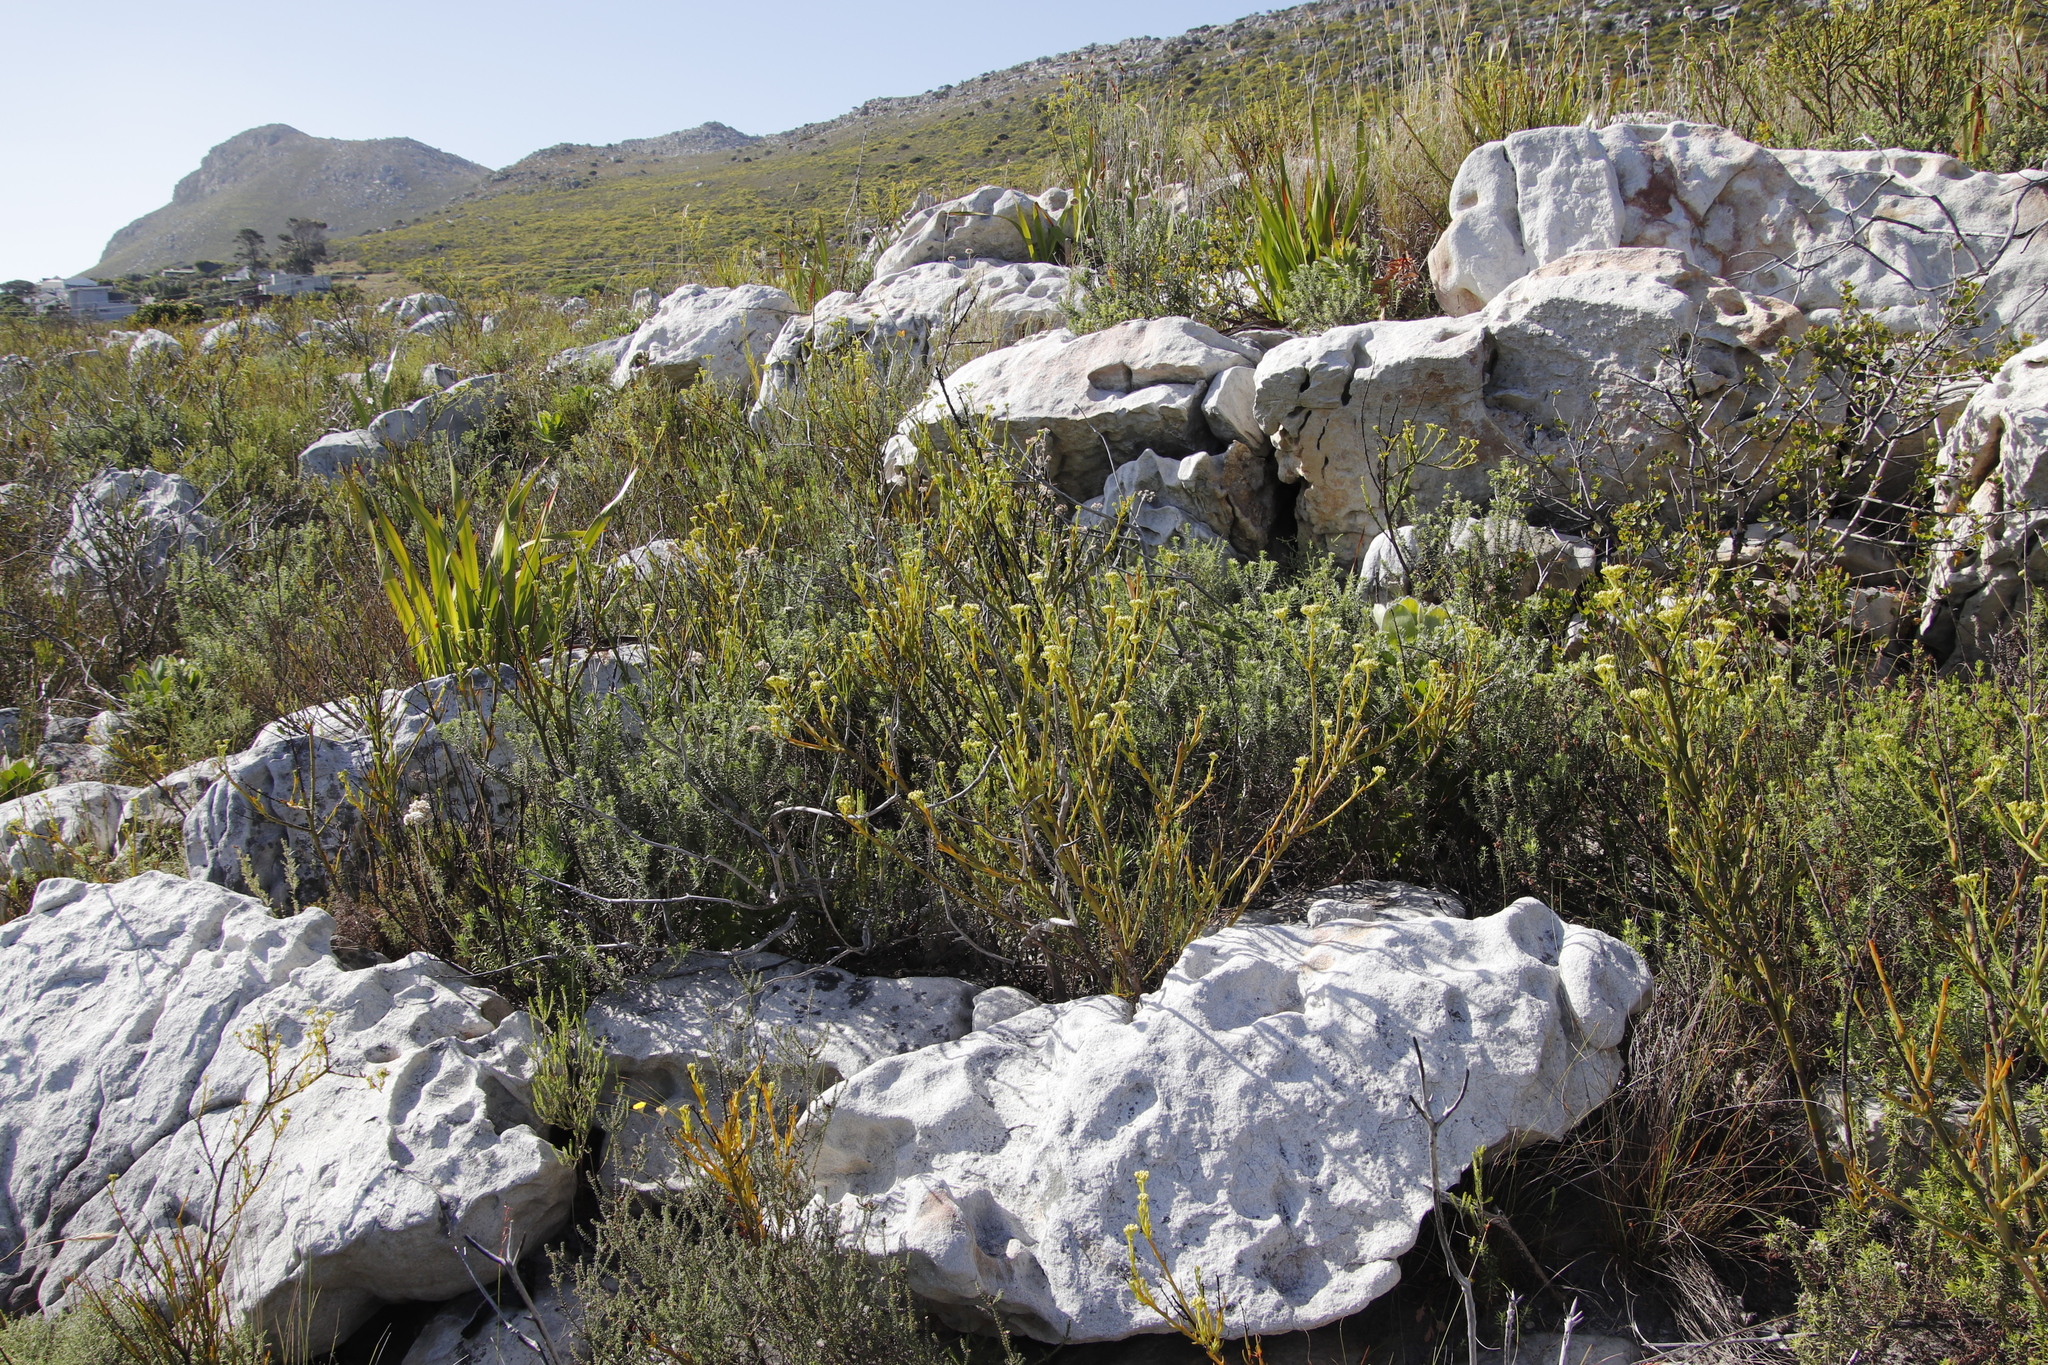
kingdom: Plantae
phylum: Tracheophyta
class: Magnoliopsida
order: Santalales
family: Thesiaceae
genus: Thesium
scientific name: Thesium strictum
